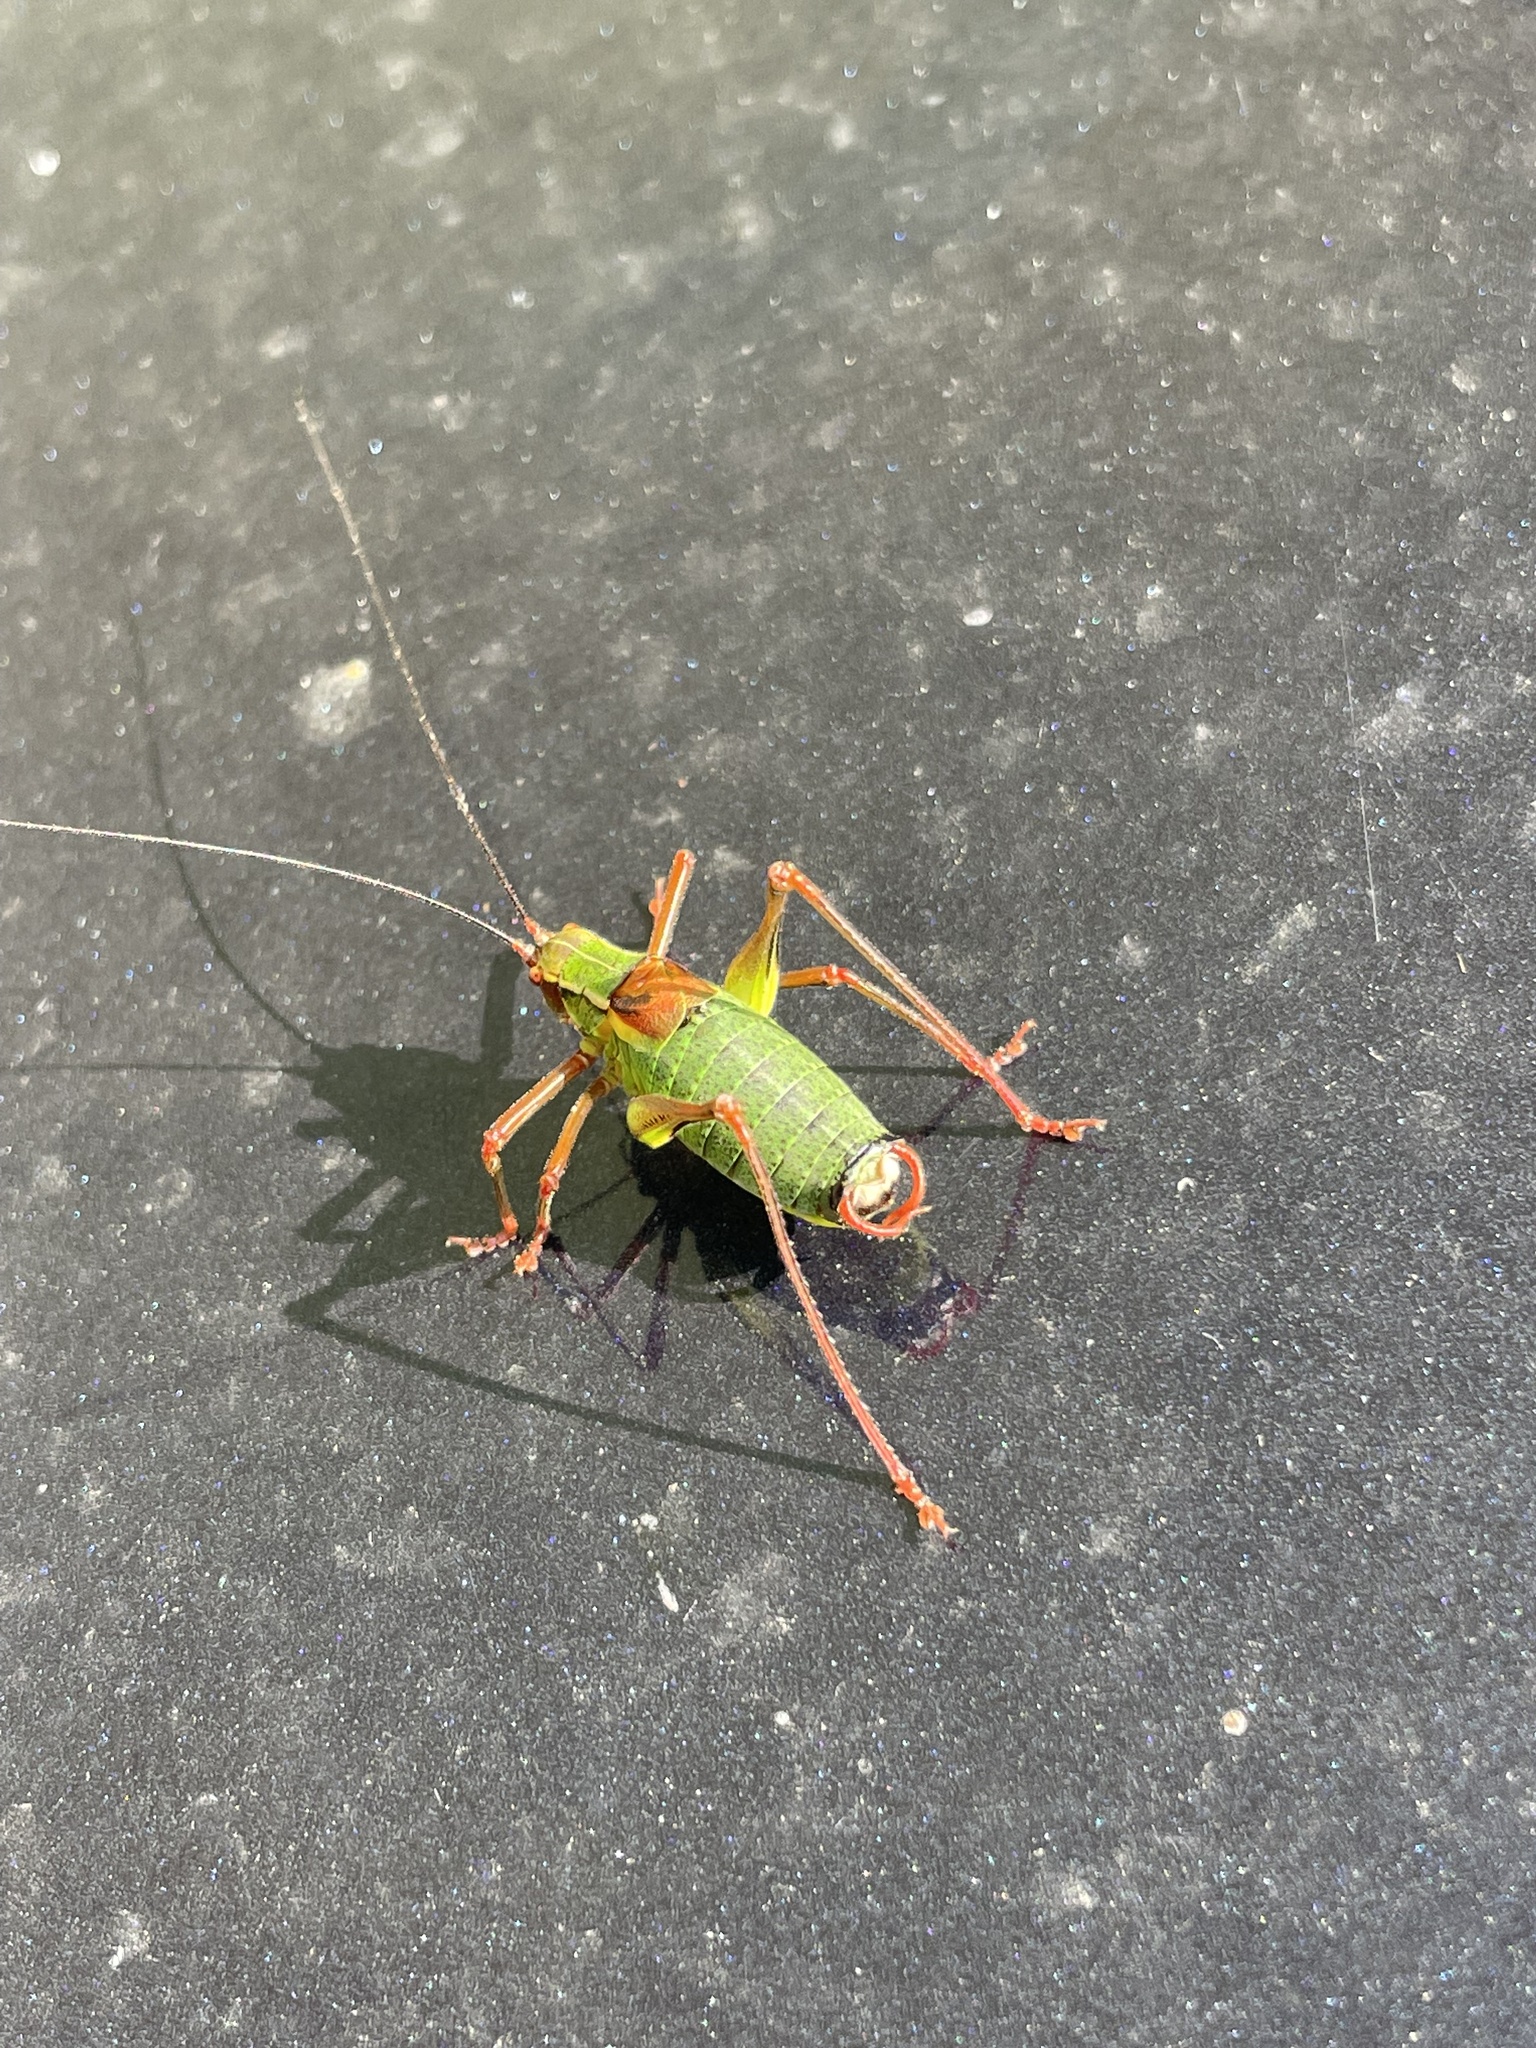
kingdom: Animalia
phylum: Arthropoda
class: Insecta
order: Orthoptera
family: Tettigoniidae
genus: Barbitistes
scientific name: Barbitistes serricauda
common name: Saw-tailed bush-cricket
